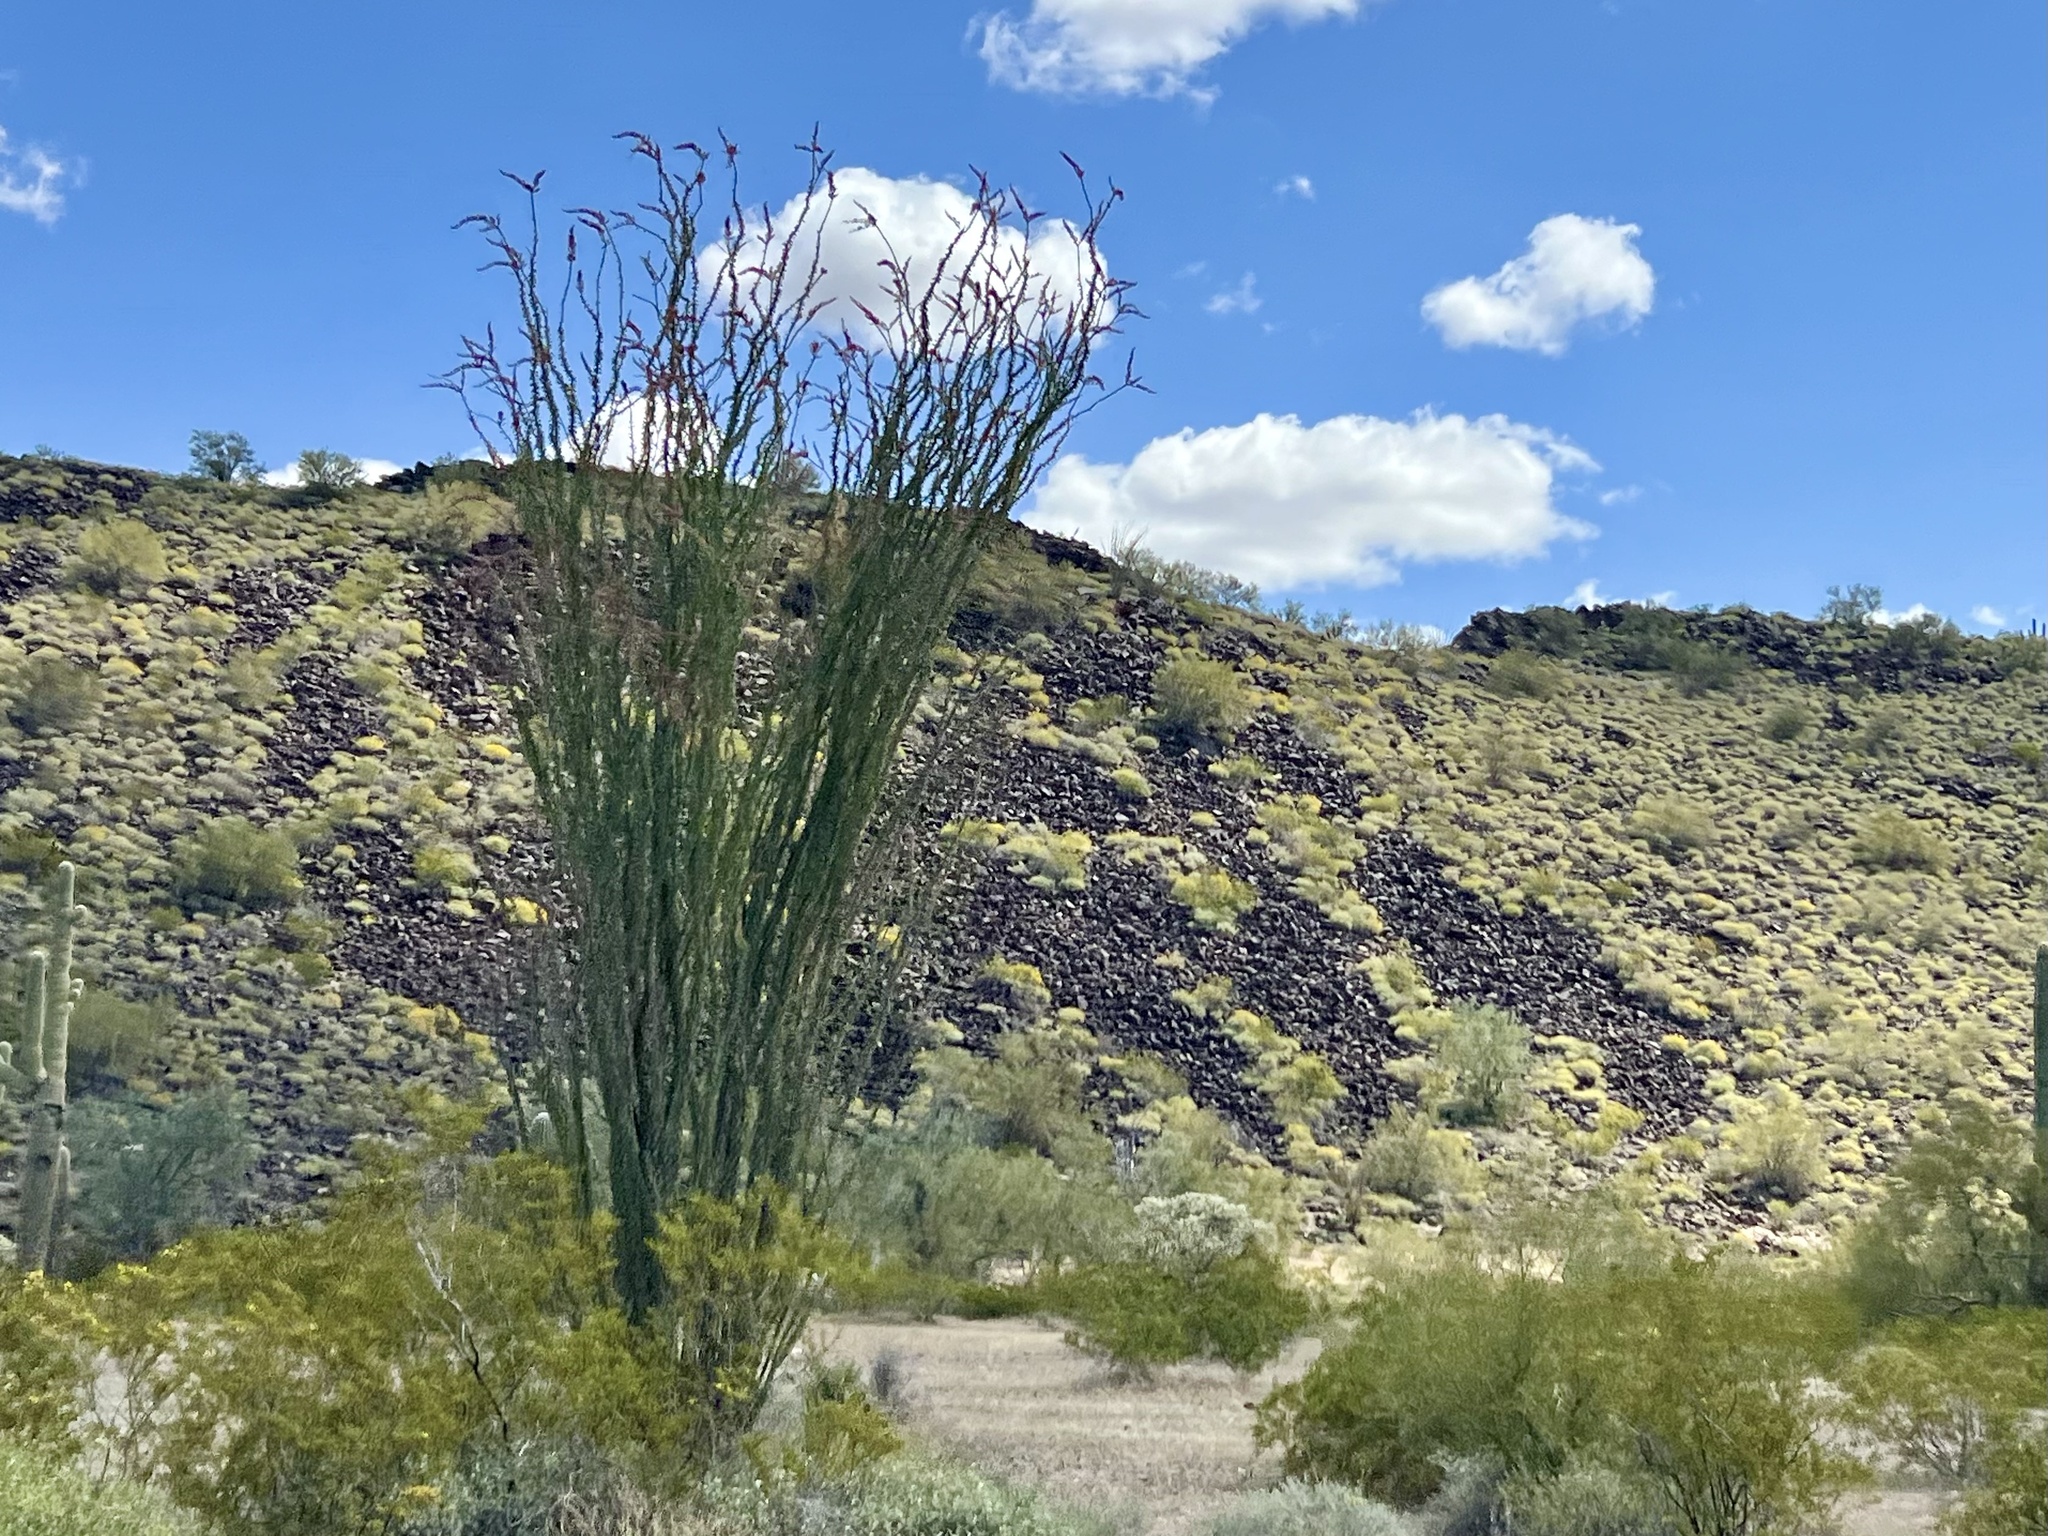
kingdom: Plantae
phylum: Tracheophyta
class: Magnoliopsida
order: Ericales
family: Fouquieriaceae
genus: Fouquieria
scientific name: Fouquieria splendens
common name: Vine-cactus
